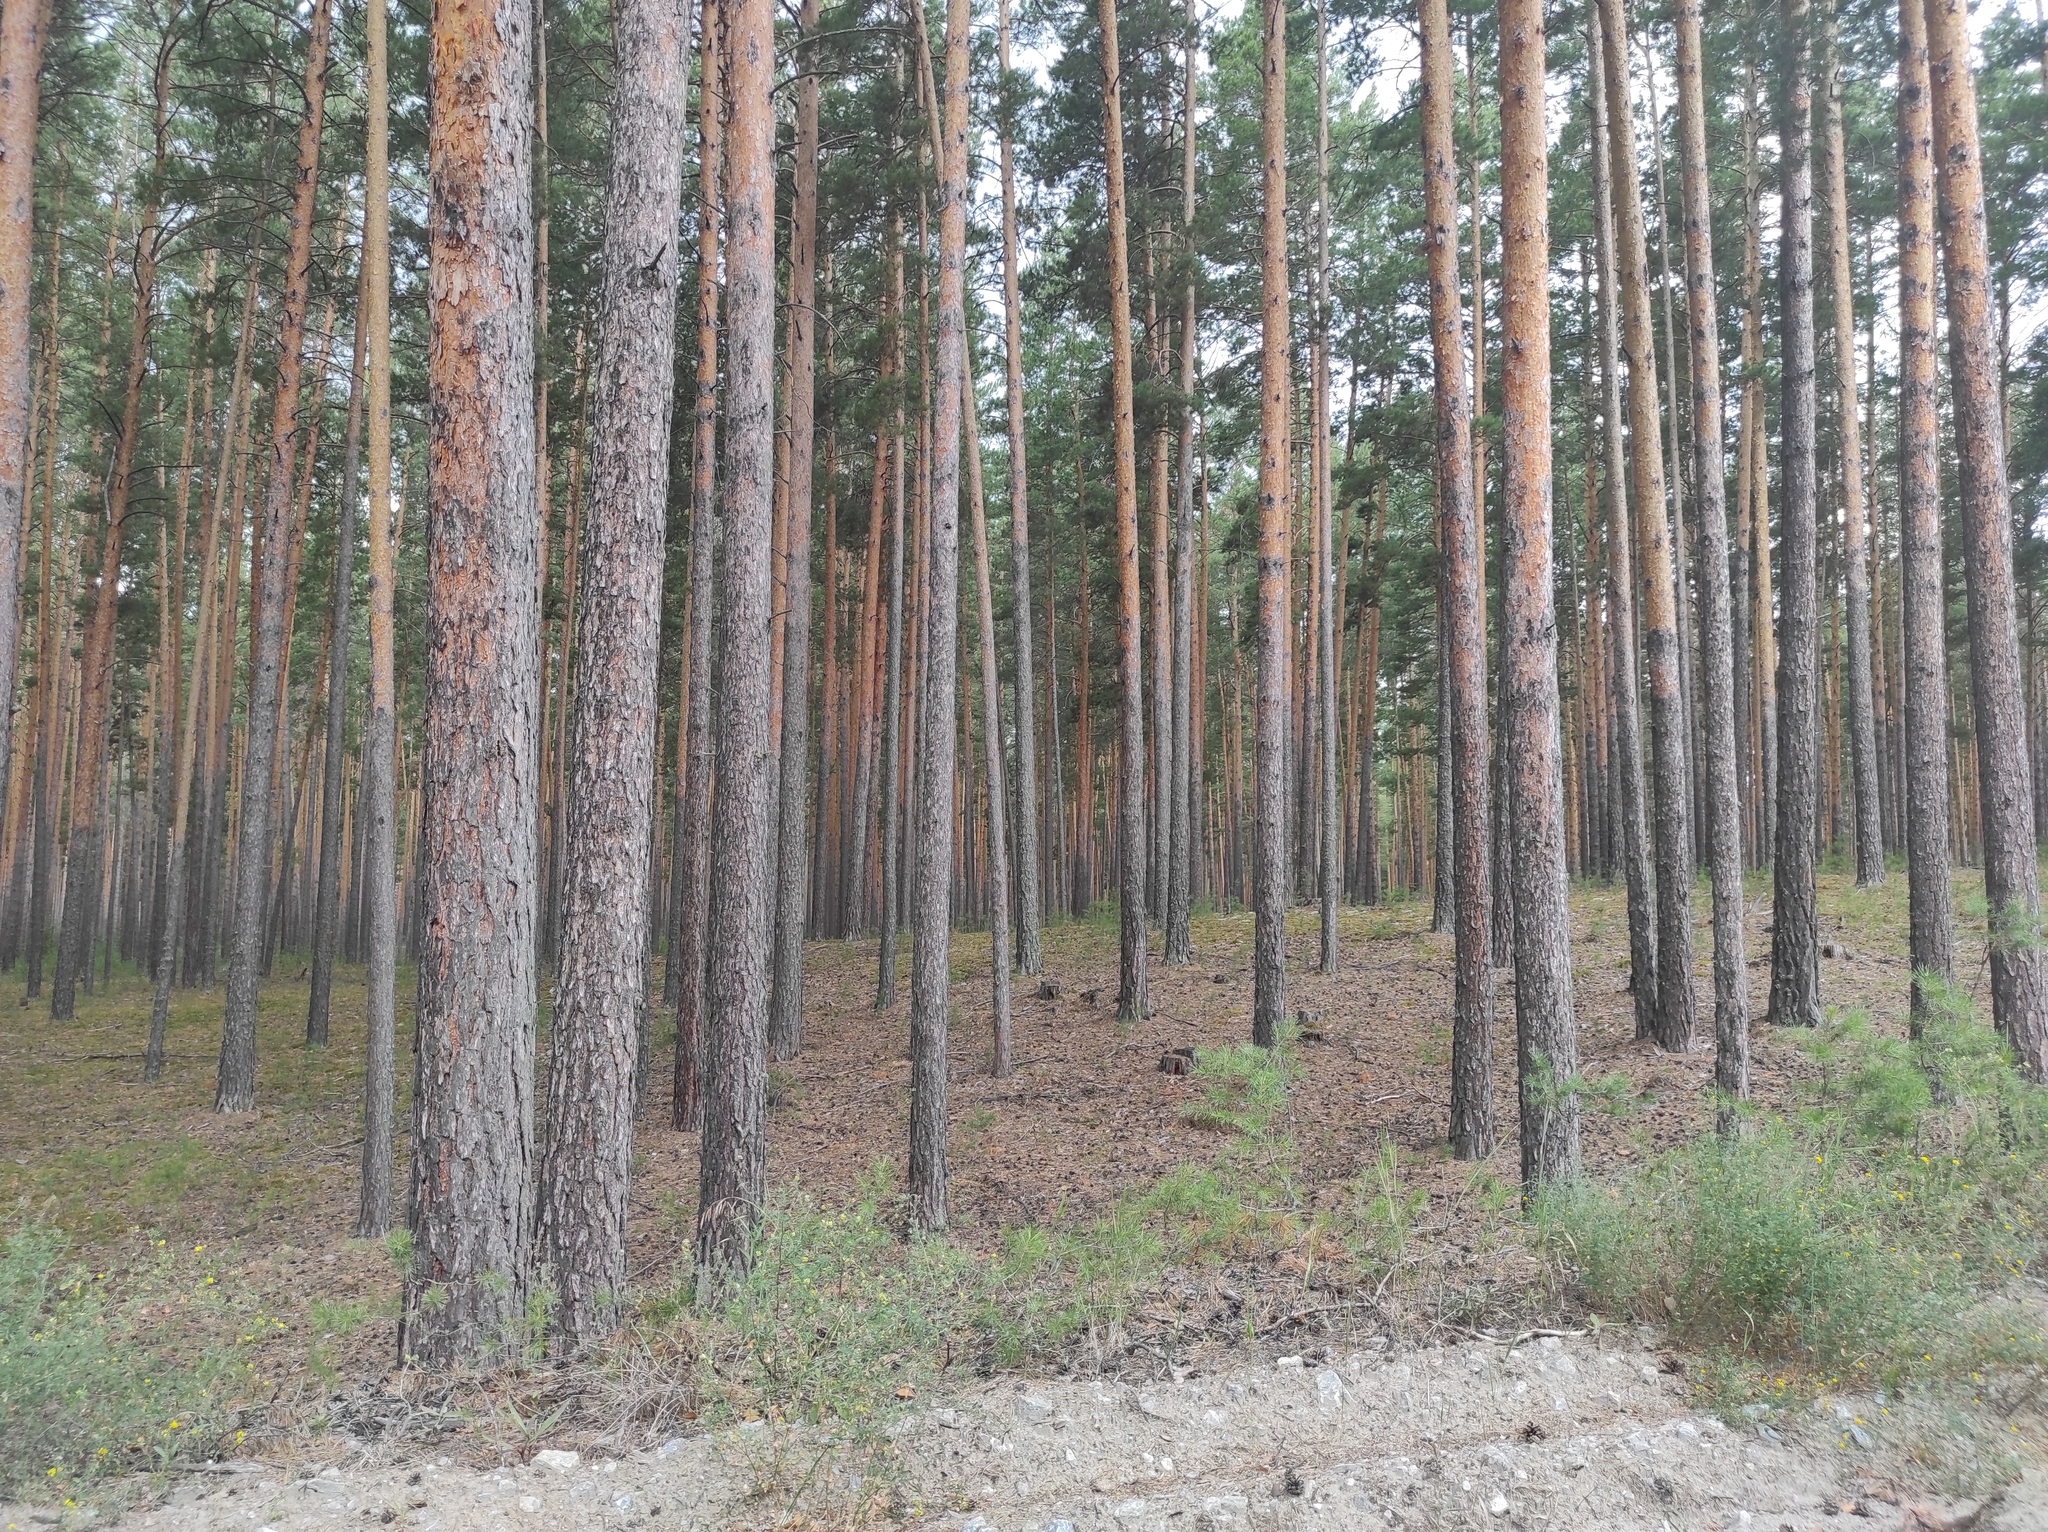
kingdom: Plantae
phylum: Tracheophyta
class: Pinopsida
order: Pinales
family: Pinaceae
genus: Pinus
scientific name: Pinus sylvestris
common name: Scots pine
